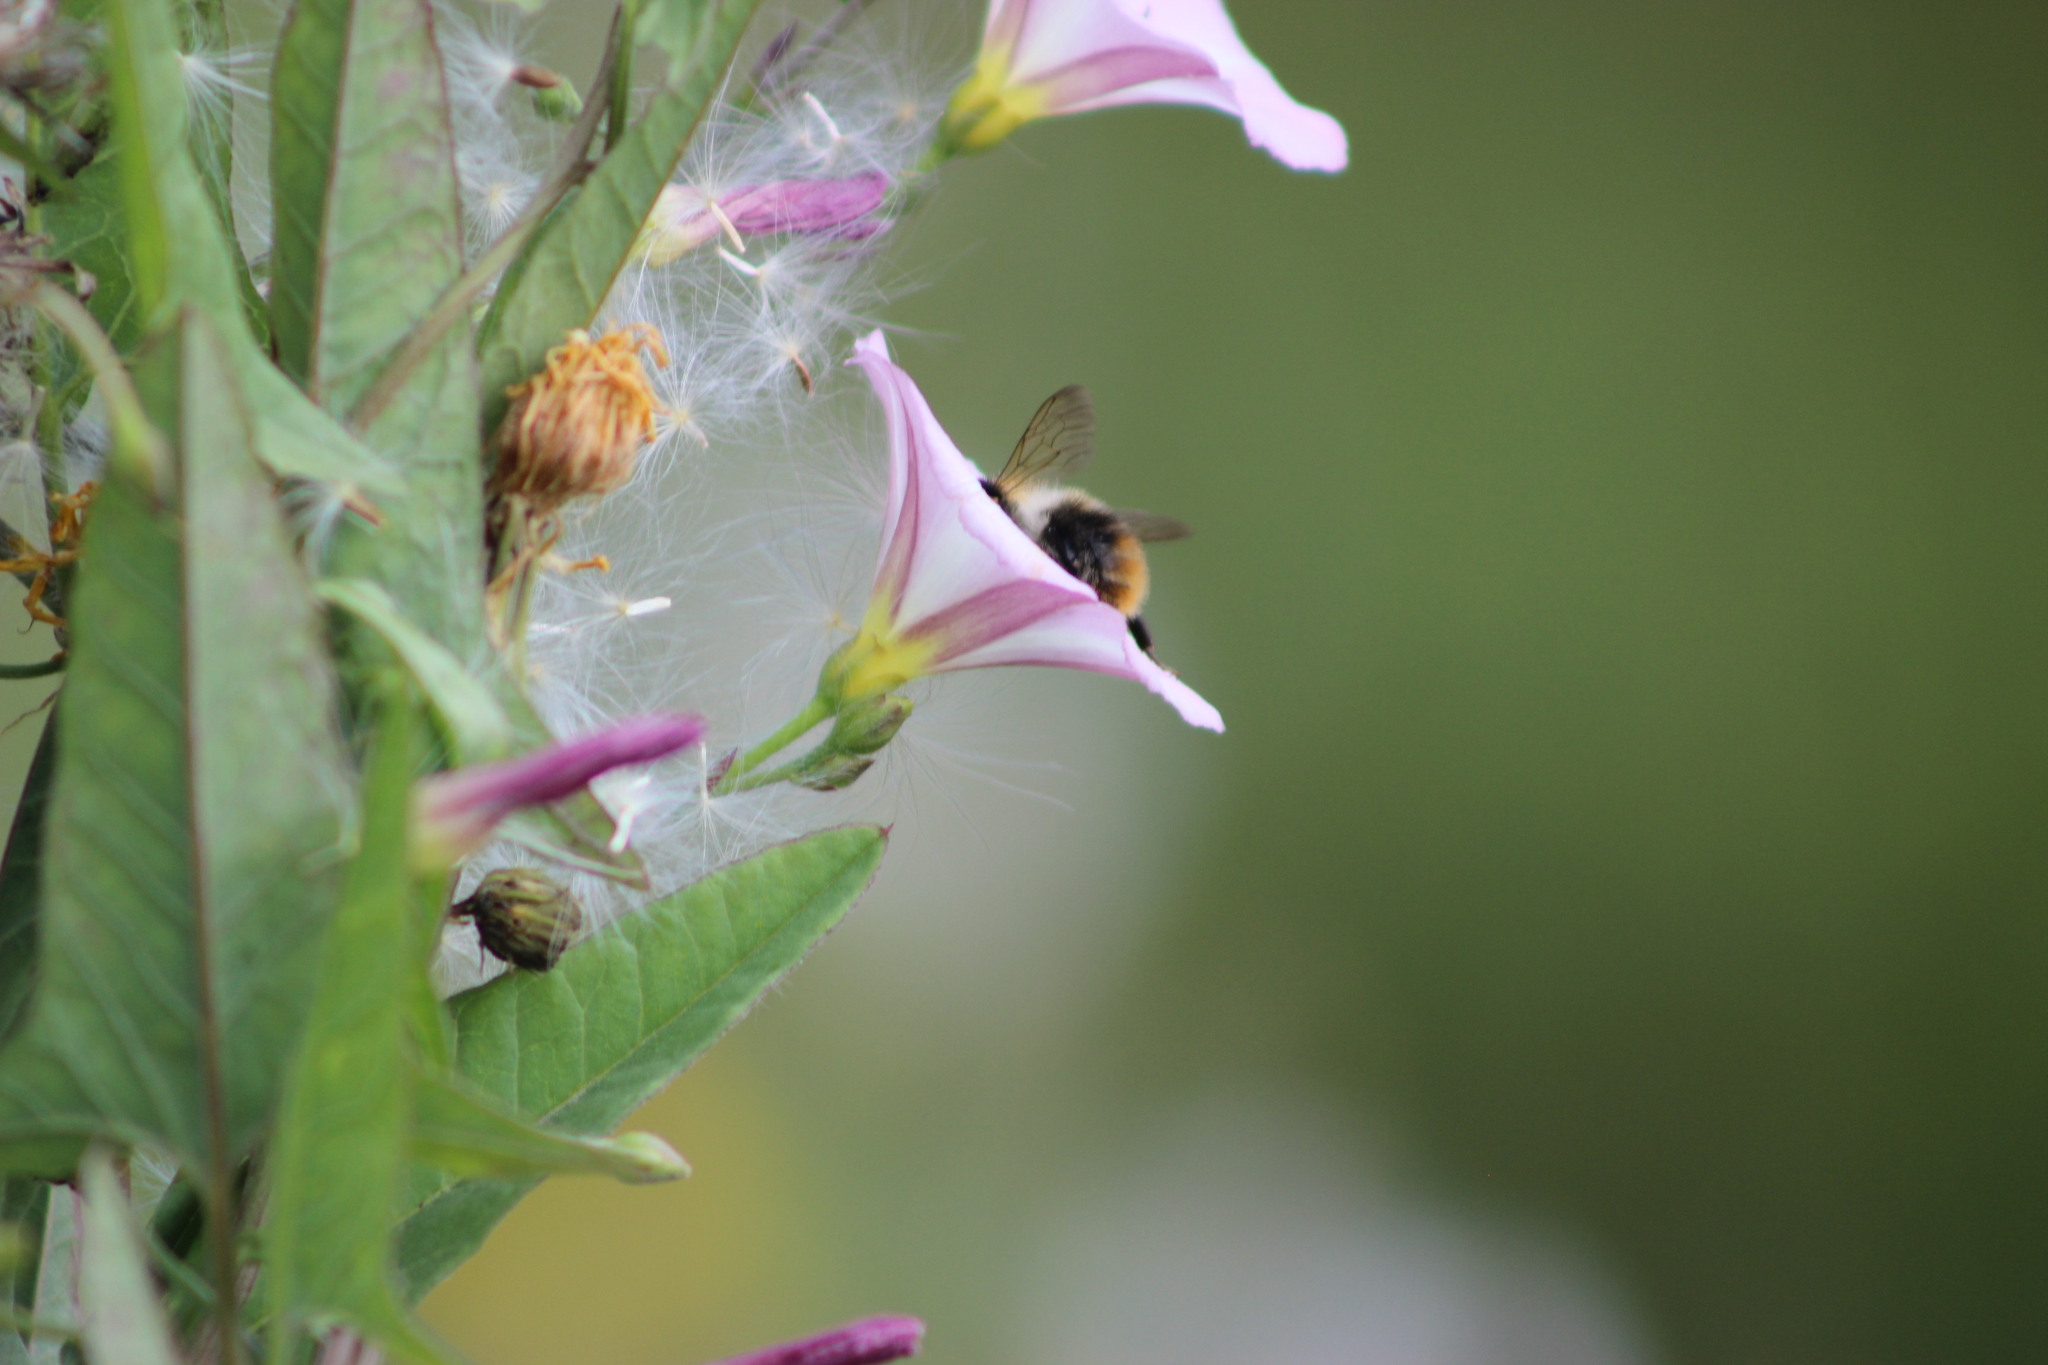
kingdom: Animalia
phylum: Arthropoda
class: Insecta
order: Hymenoptera
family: Apidae
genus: Bombus
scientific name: Bombus pascuorum
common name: Common carder bee
